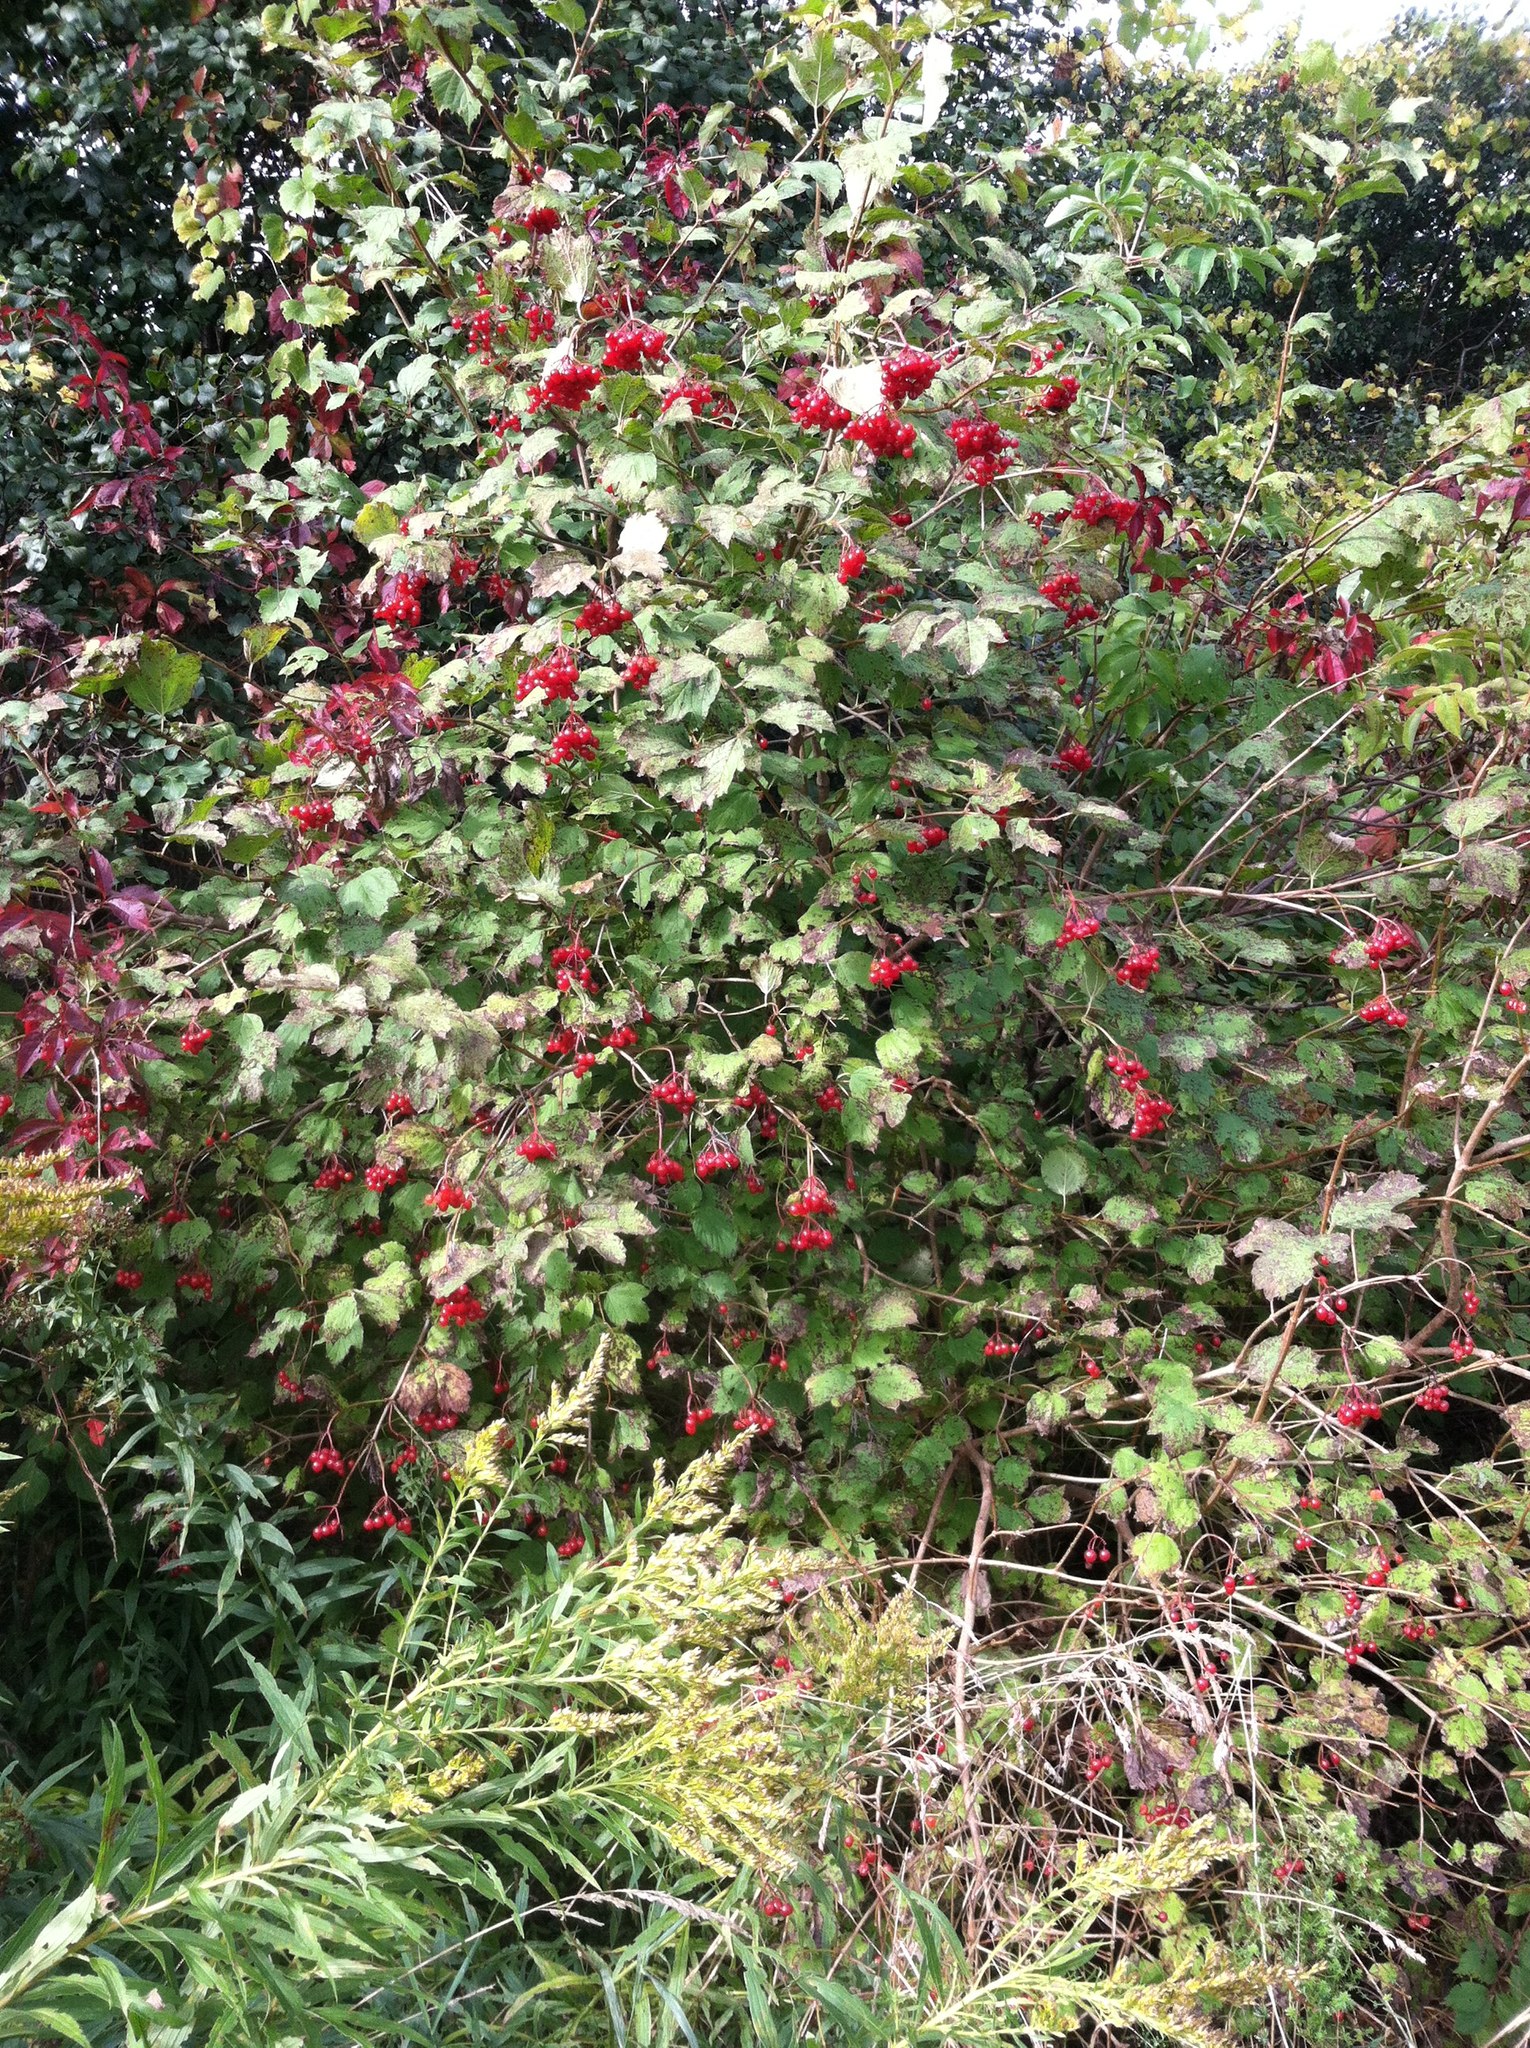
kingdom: Plantae
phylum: Tracheophyta
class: Magnoliopsida
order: Dipsacales
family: Viburnaceae
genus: Viburnum
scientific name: Viburnum opulus
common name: Guelder-rose
